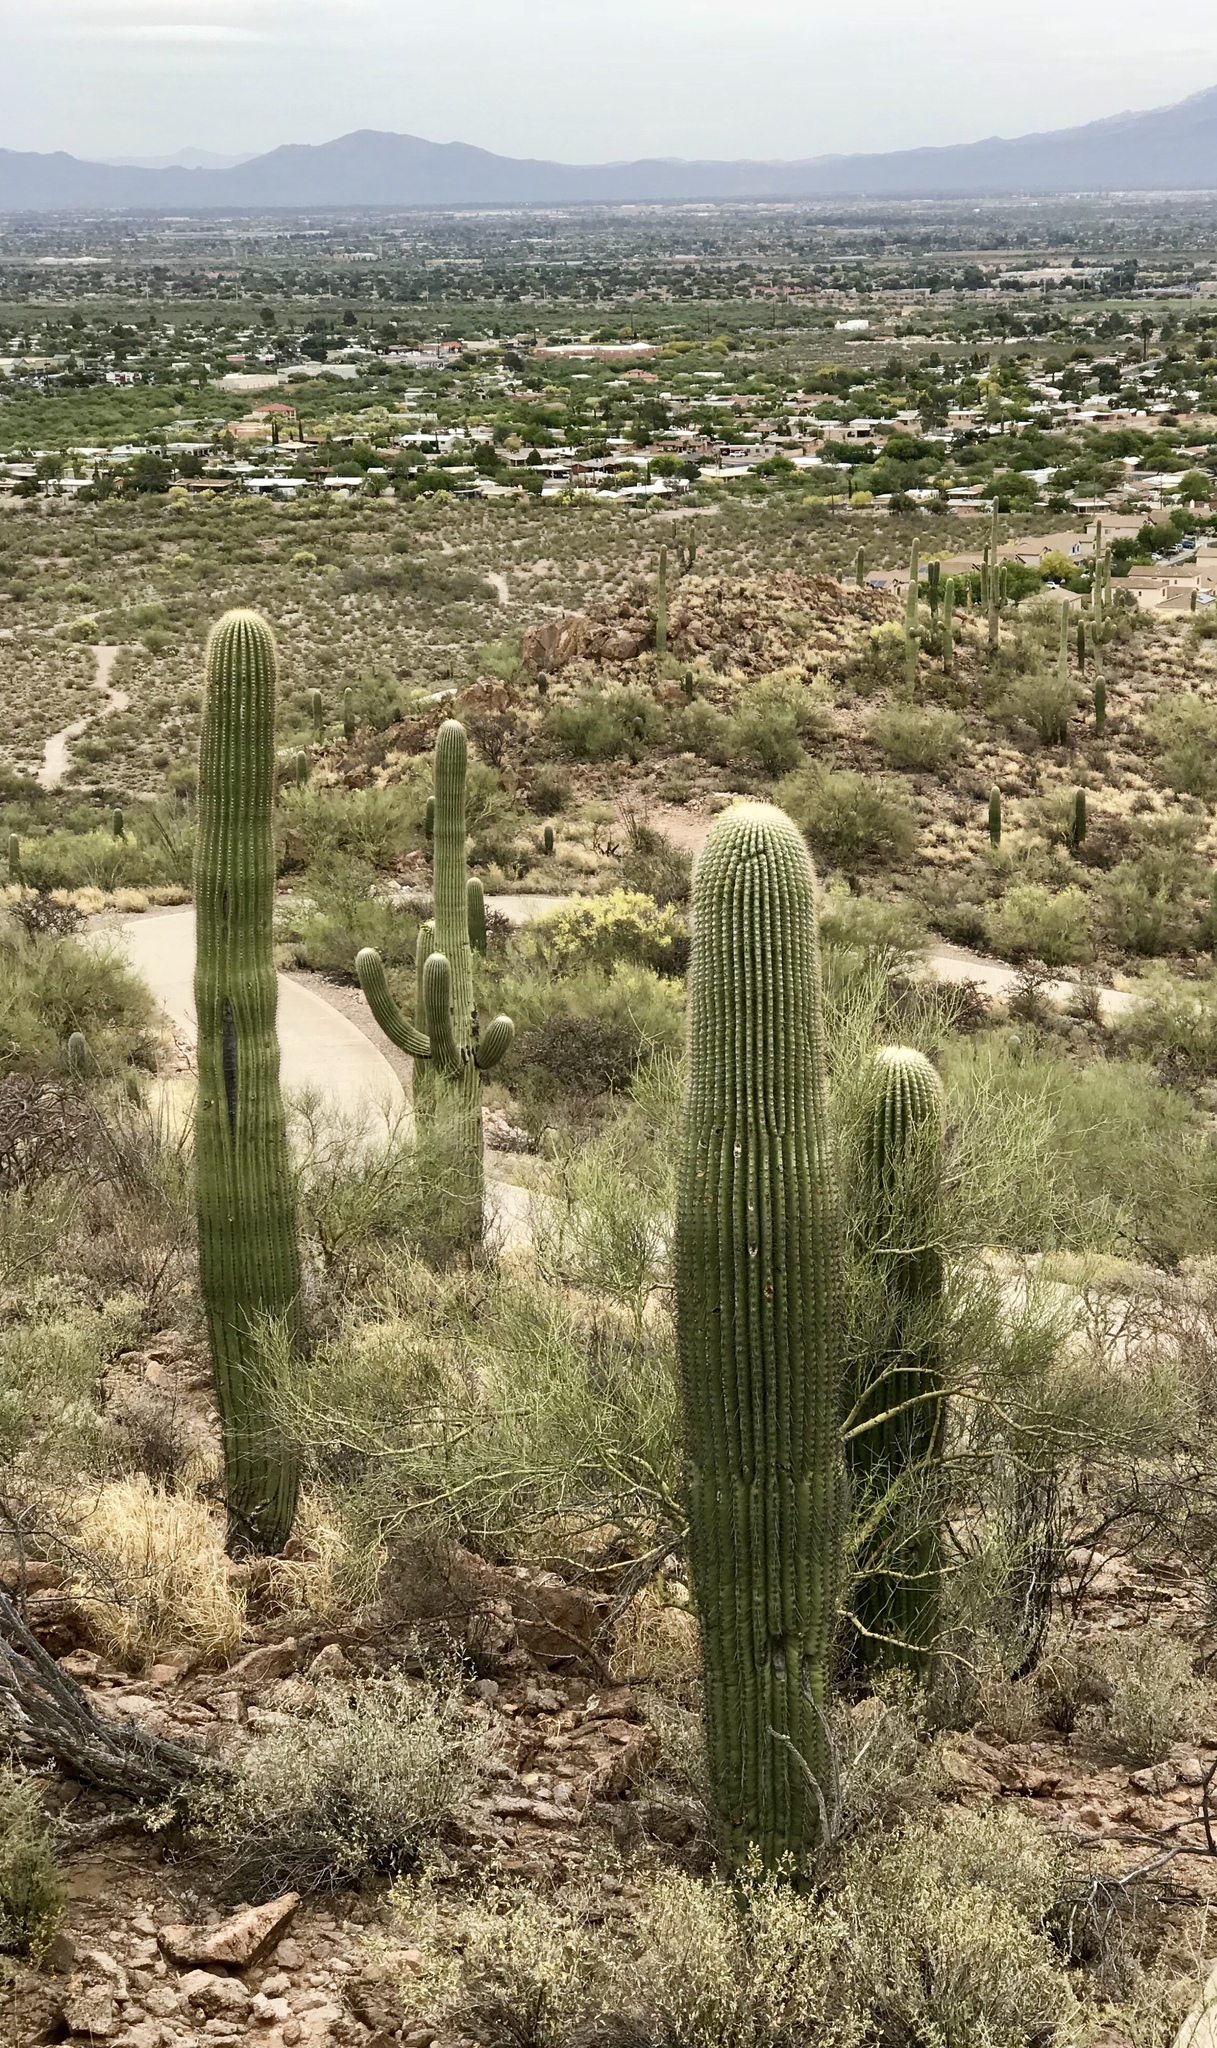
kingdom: Plantae
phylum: Tracheophyta
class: Magnoliopsida
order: Caryophyllales
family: Cactaceae
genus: Carnegiea
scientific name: Carnegiea gigantea
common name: Saguaro
